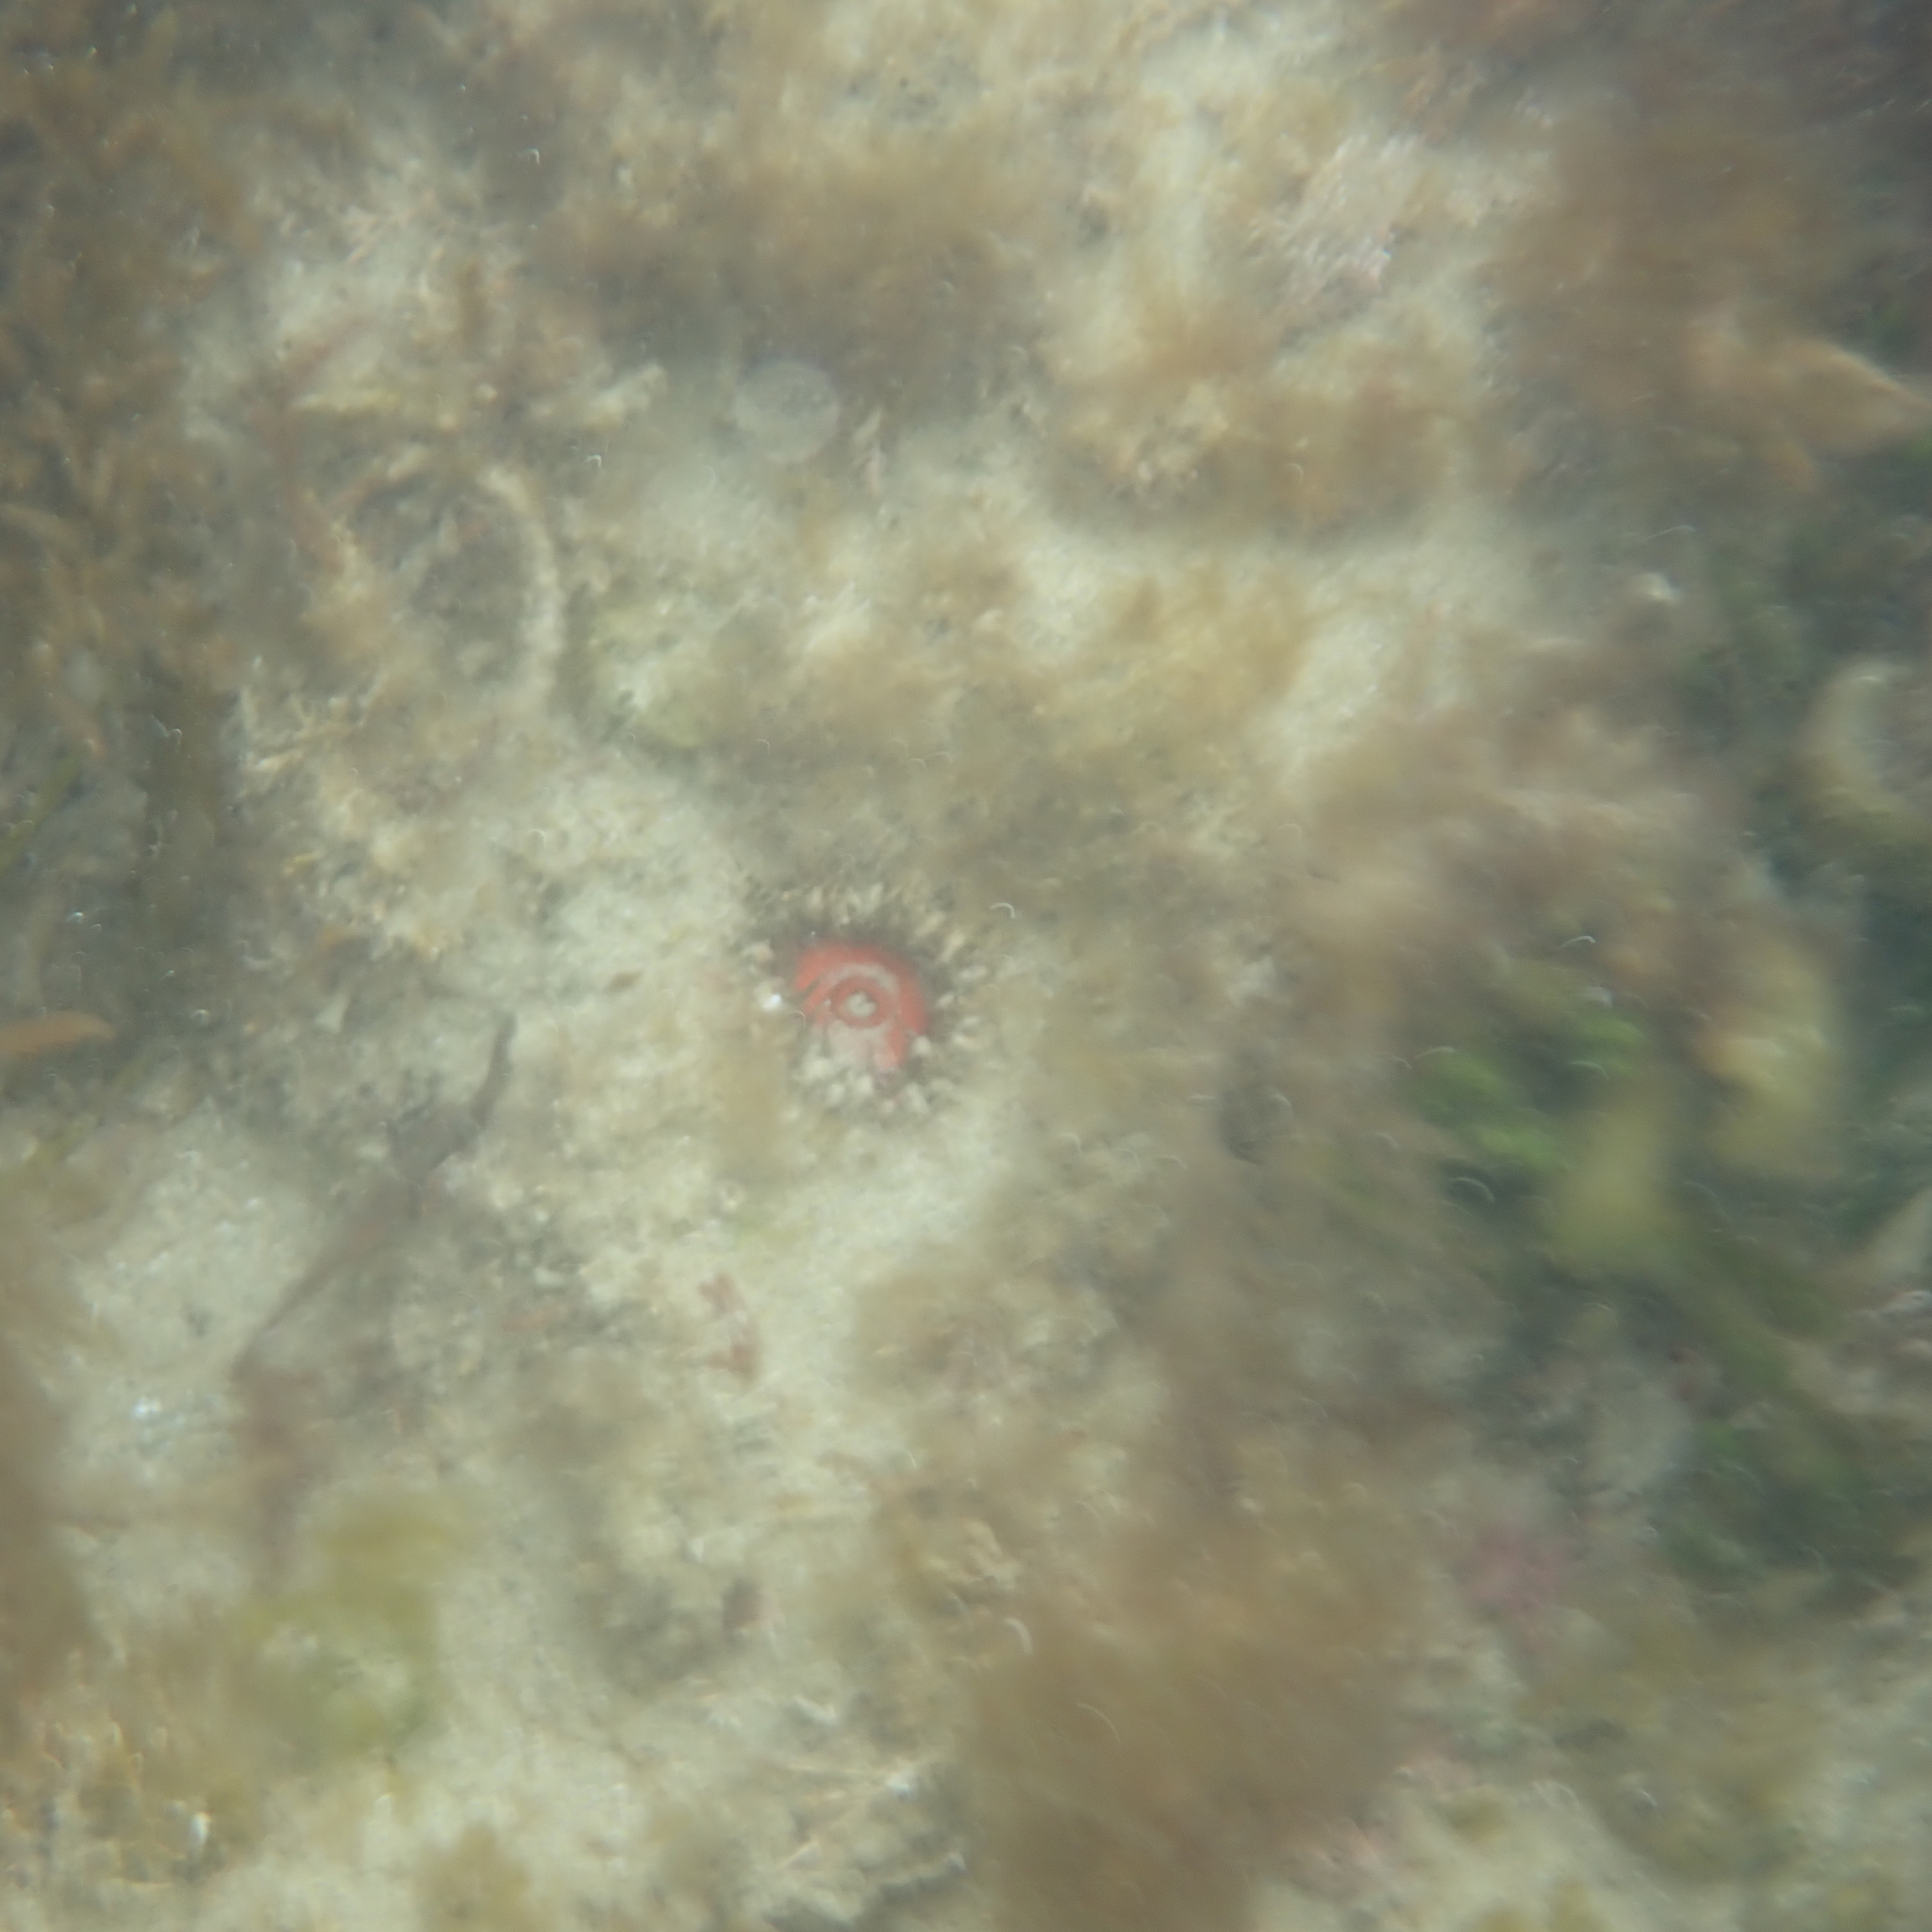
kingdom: Animalia
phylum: Cnidaria
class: Anthozoa
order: Actiniaria
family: Actiniidae
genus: Oulactis
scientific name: Oulactis muscosa
